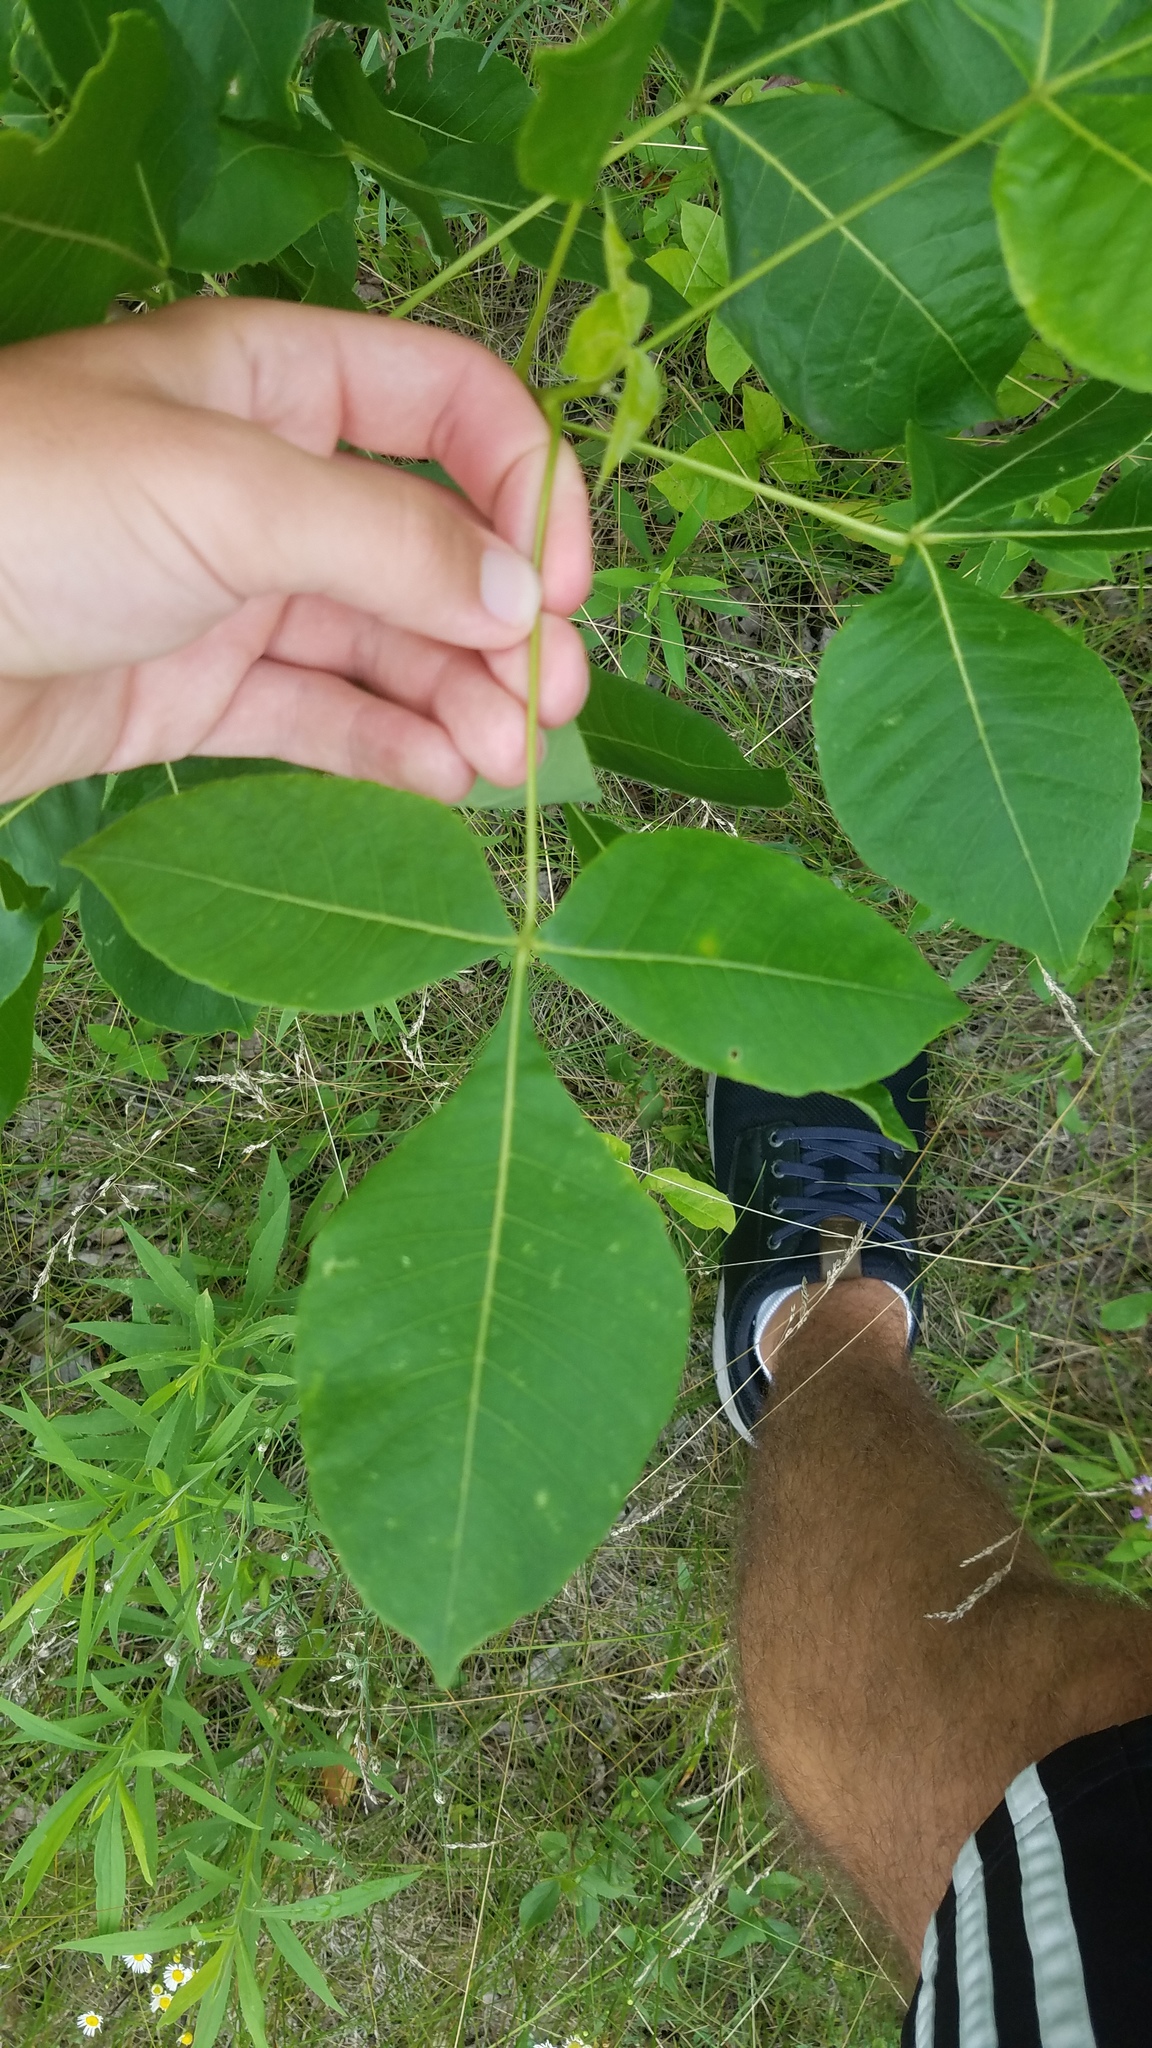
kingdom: Plantae
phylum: Tracheophyta
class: Magnoliopsida
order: Sapindales
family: Rutaceae
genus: Ptelea
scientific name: Ptelea trifoliata
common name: Common hop-tree
